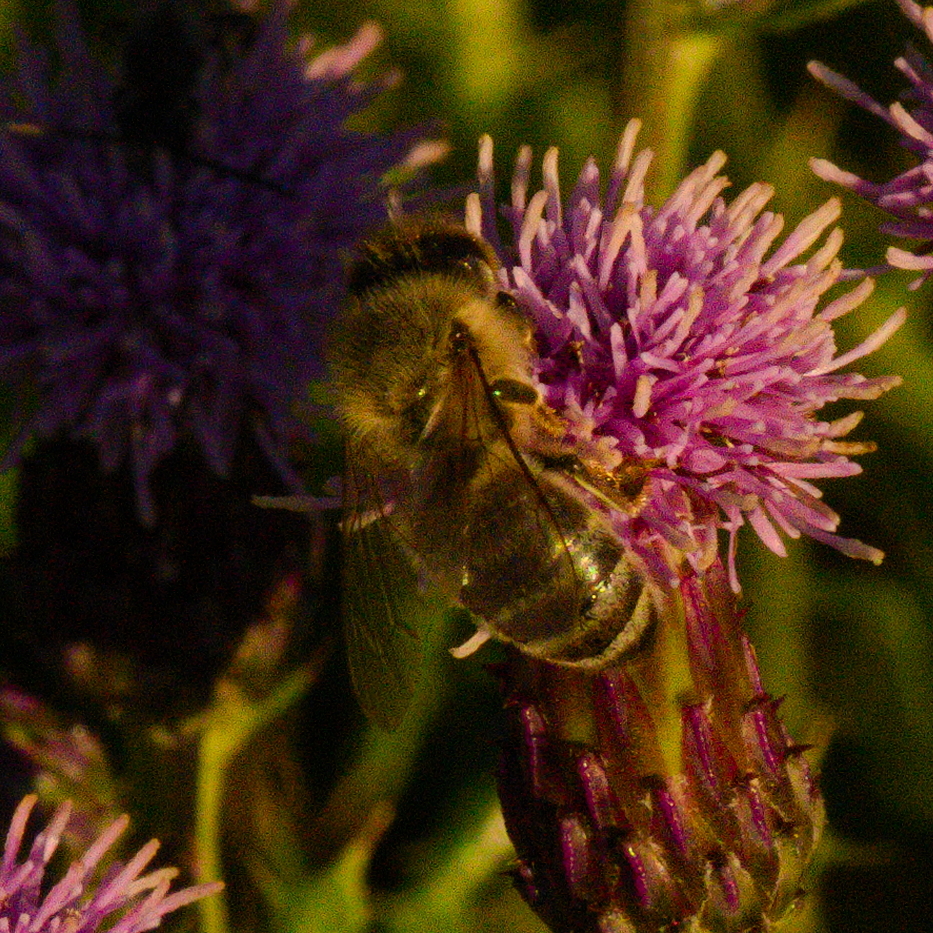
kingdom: Animalia
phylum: Arthropoda
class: Insecta
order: Hymenoptera
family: Apidae
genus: Apis
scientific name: Apis mellifera
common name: Honey bee
